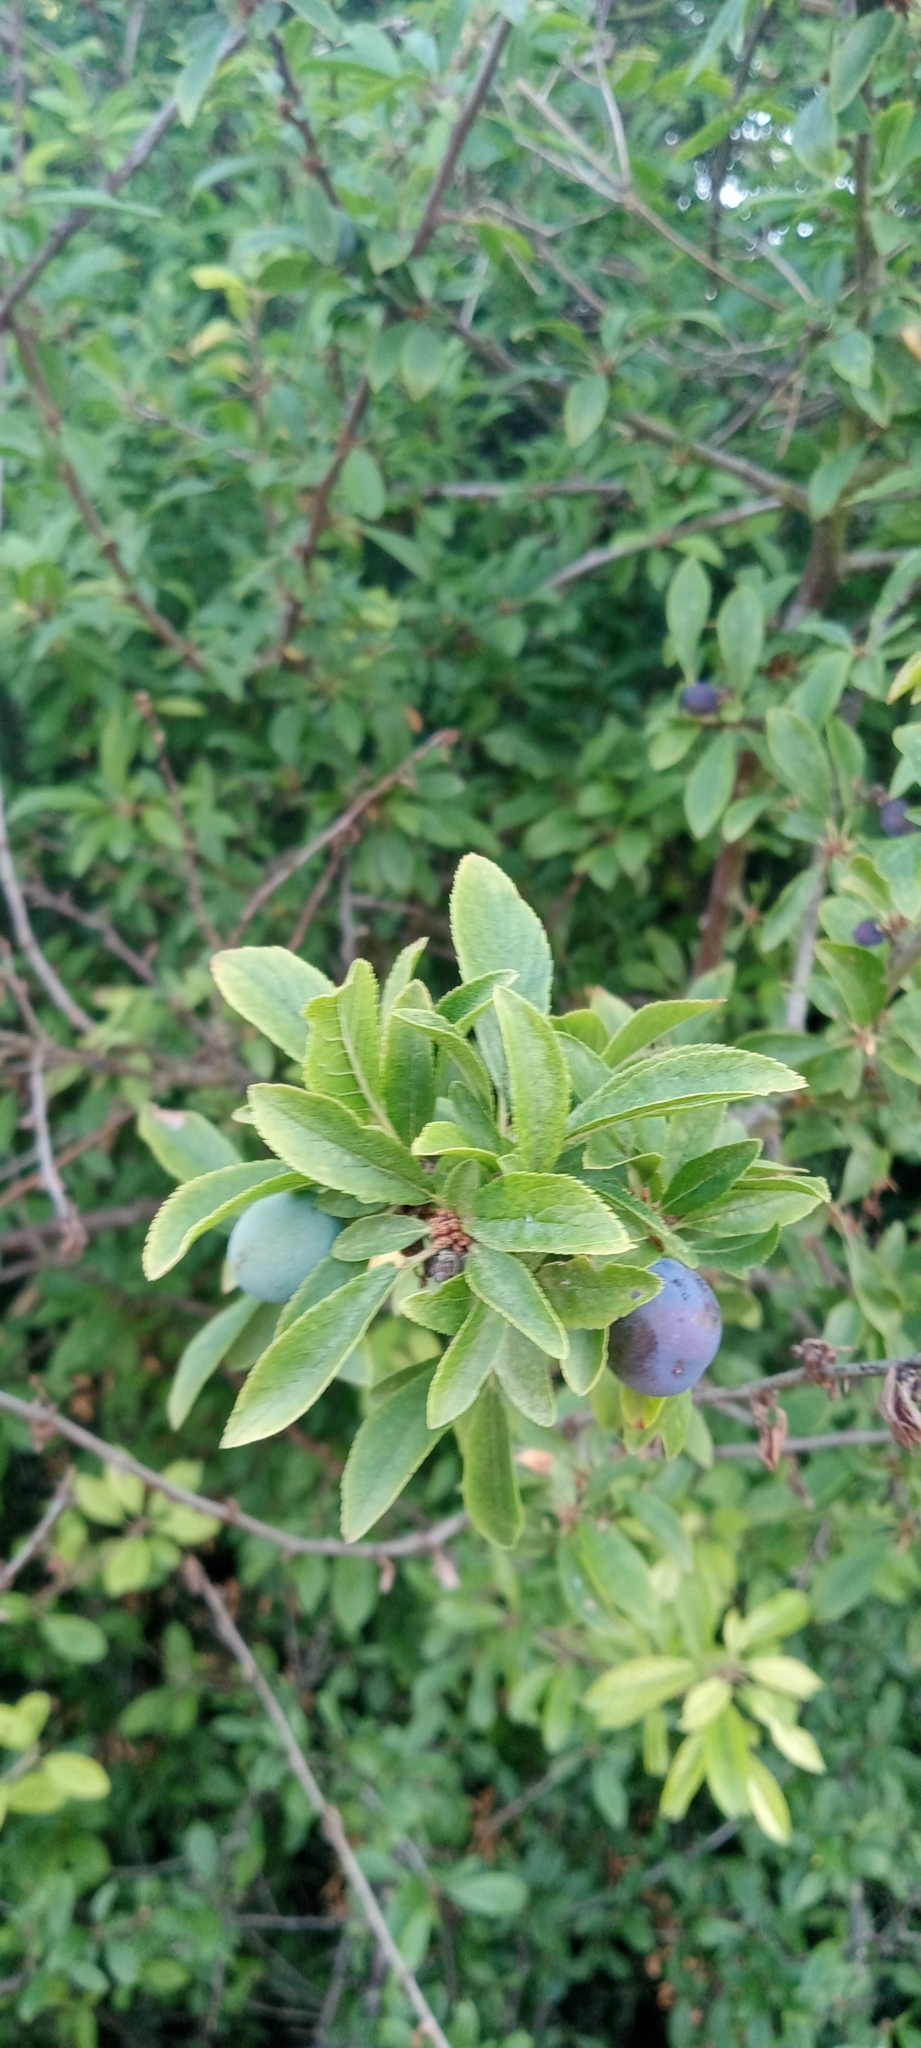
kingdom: Plantae
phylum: Tracheophyta
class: Magnoliopsida
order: Rosales
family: Rosaceae
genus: Prunus
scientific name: Prunus spinosa
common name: Blackthorn
